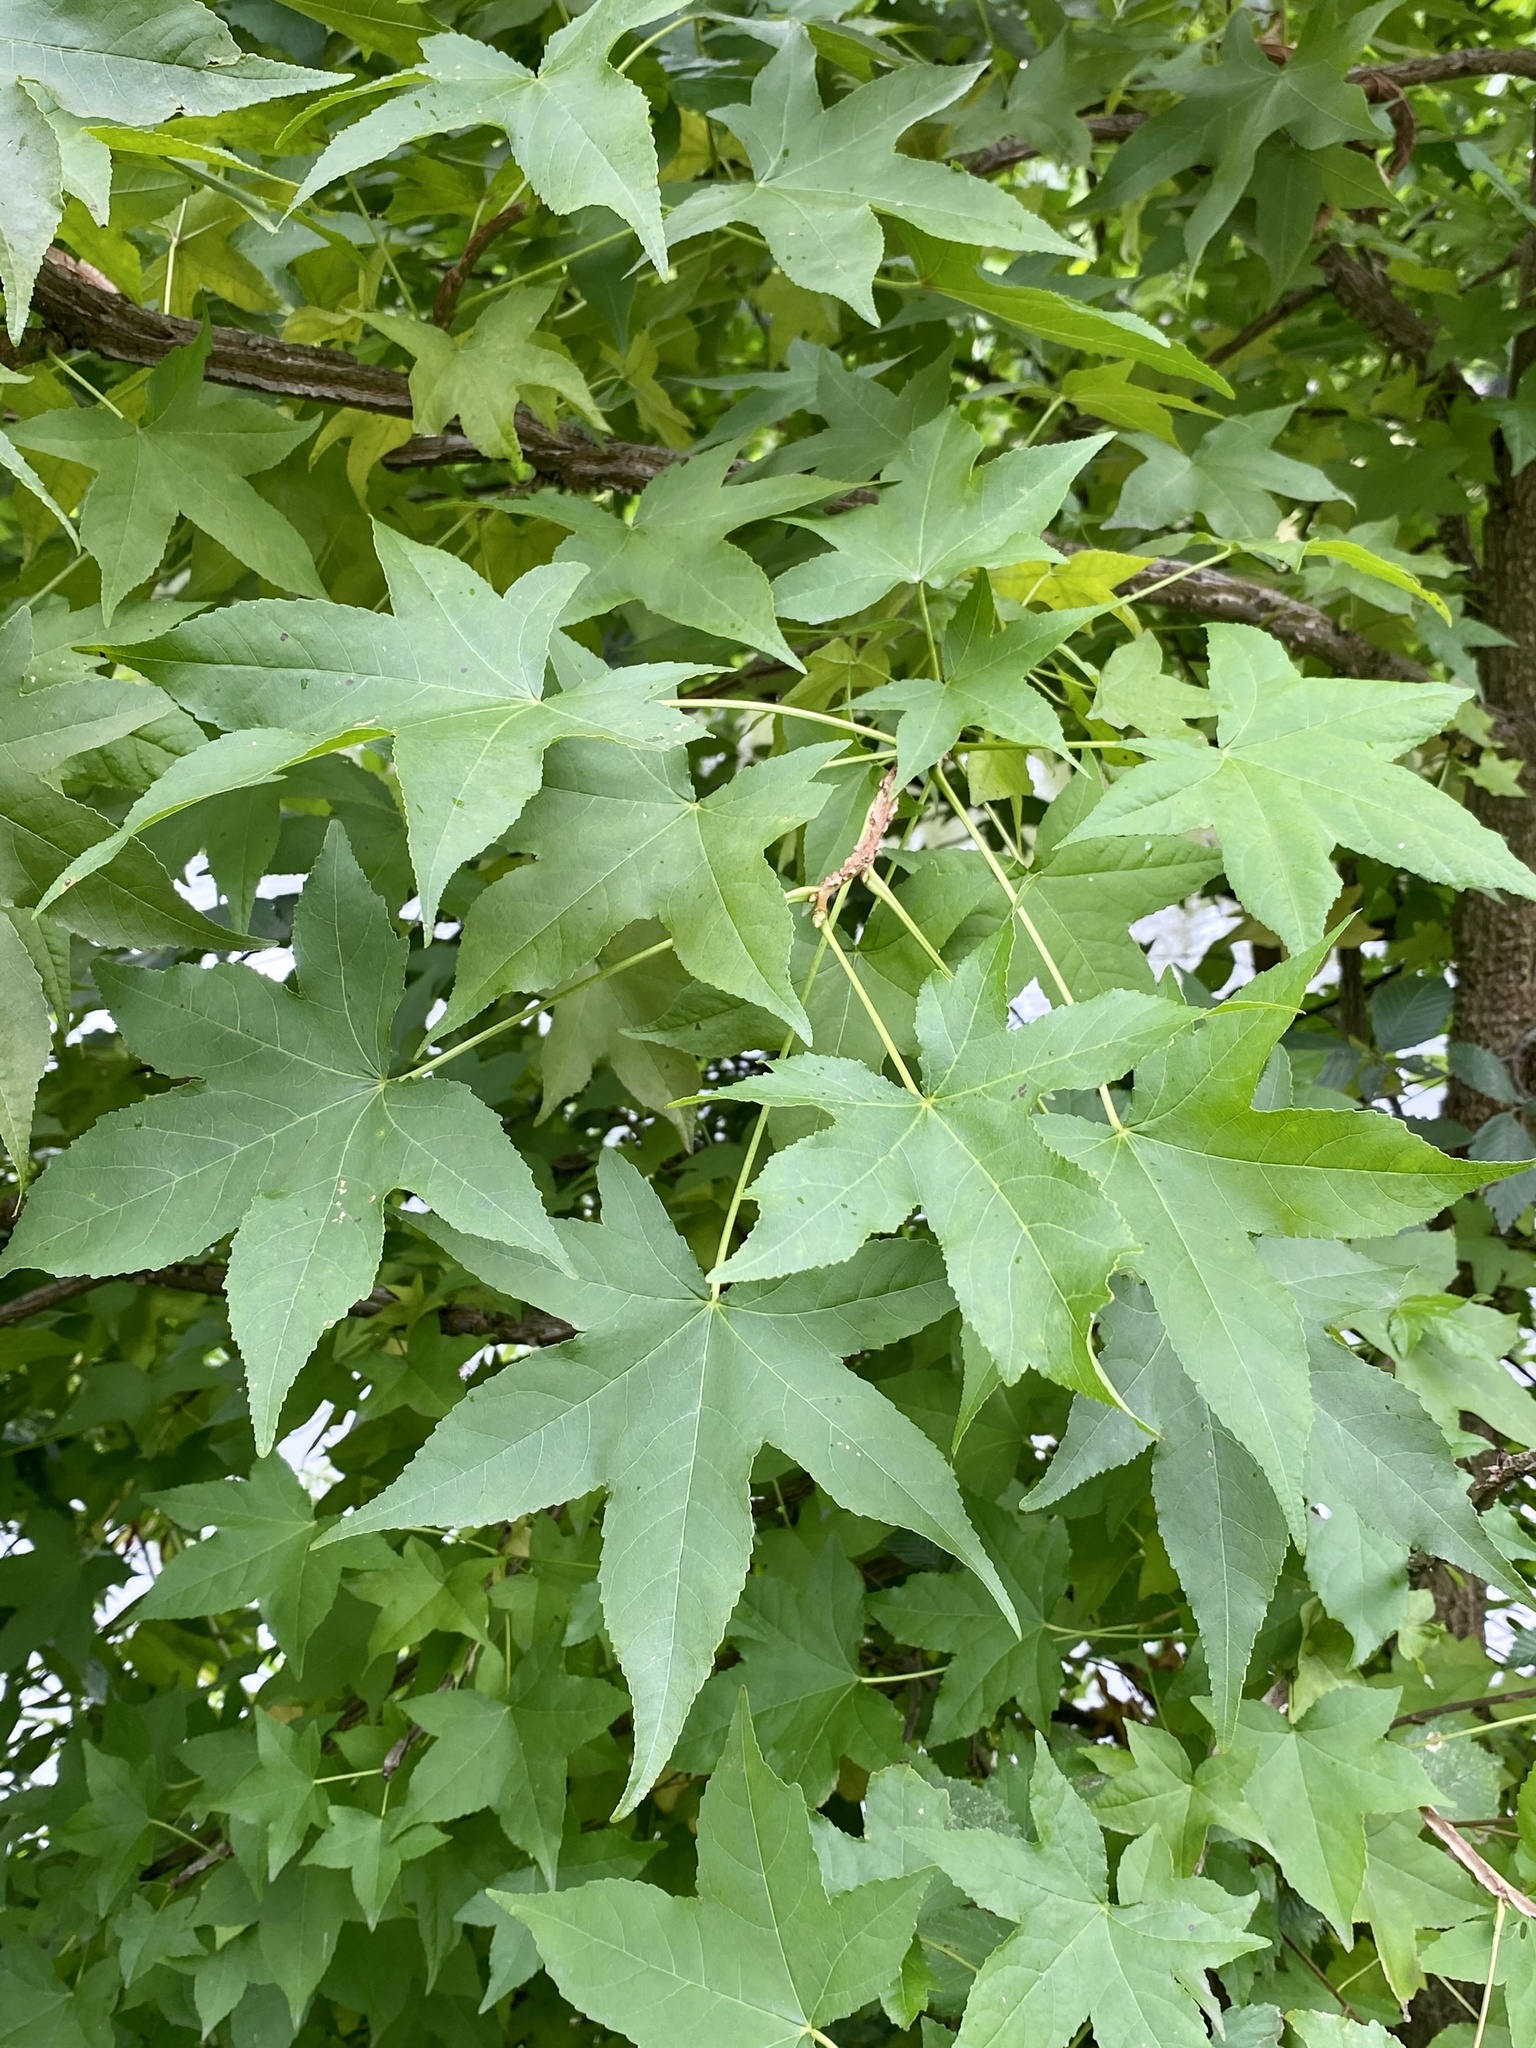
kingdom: Plantae
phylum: Tracheophyta
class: Magnoliopsida
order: Saxifragales
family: Altingiaceae
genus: Liquidambar
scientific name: Liquidambar styraciflua
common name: Sweet gum
